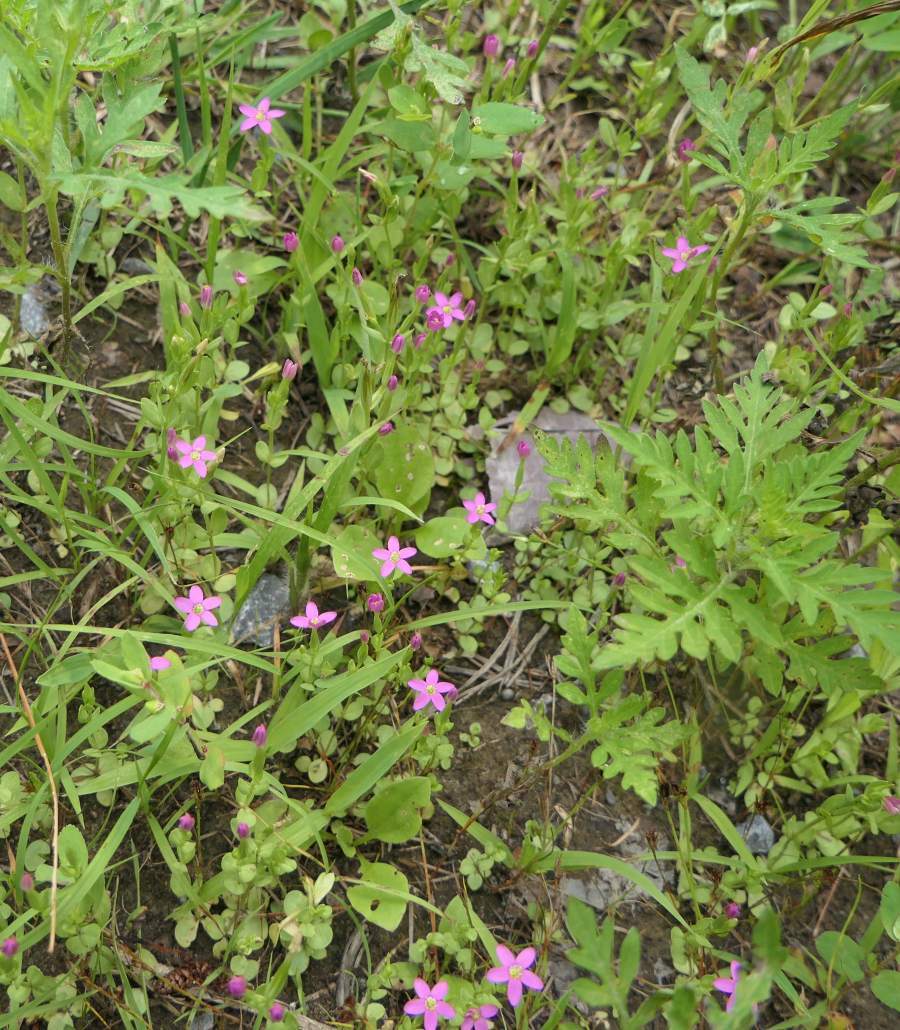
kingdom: Plantae
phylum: Tracheophyta
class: Magnoliopsida
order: Gentianales
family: Gentianaceae
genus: Centaurium
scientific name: Centaurium pulchellum
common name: Lesser centaury
